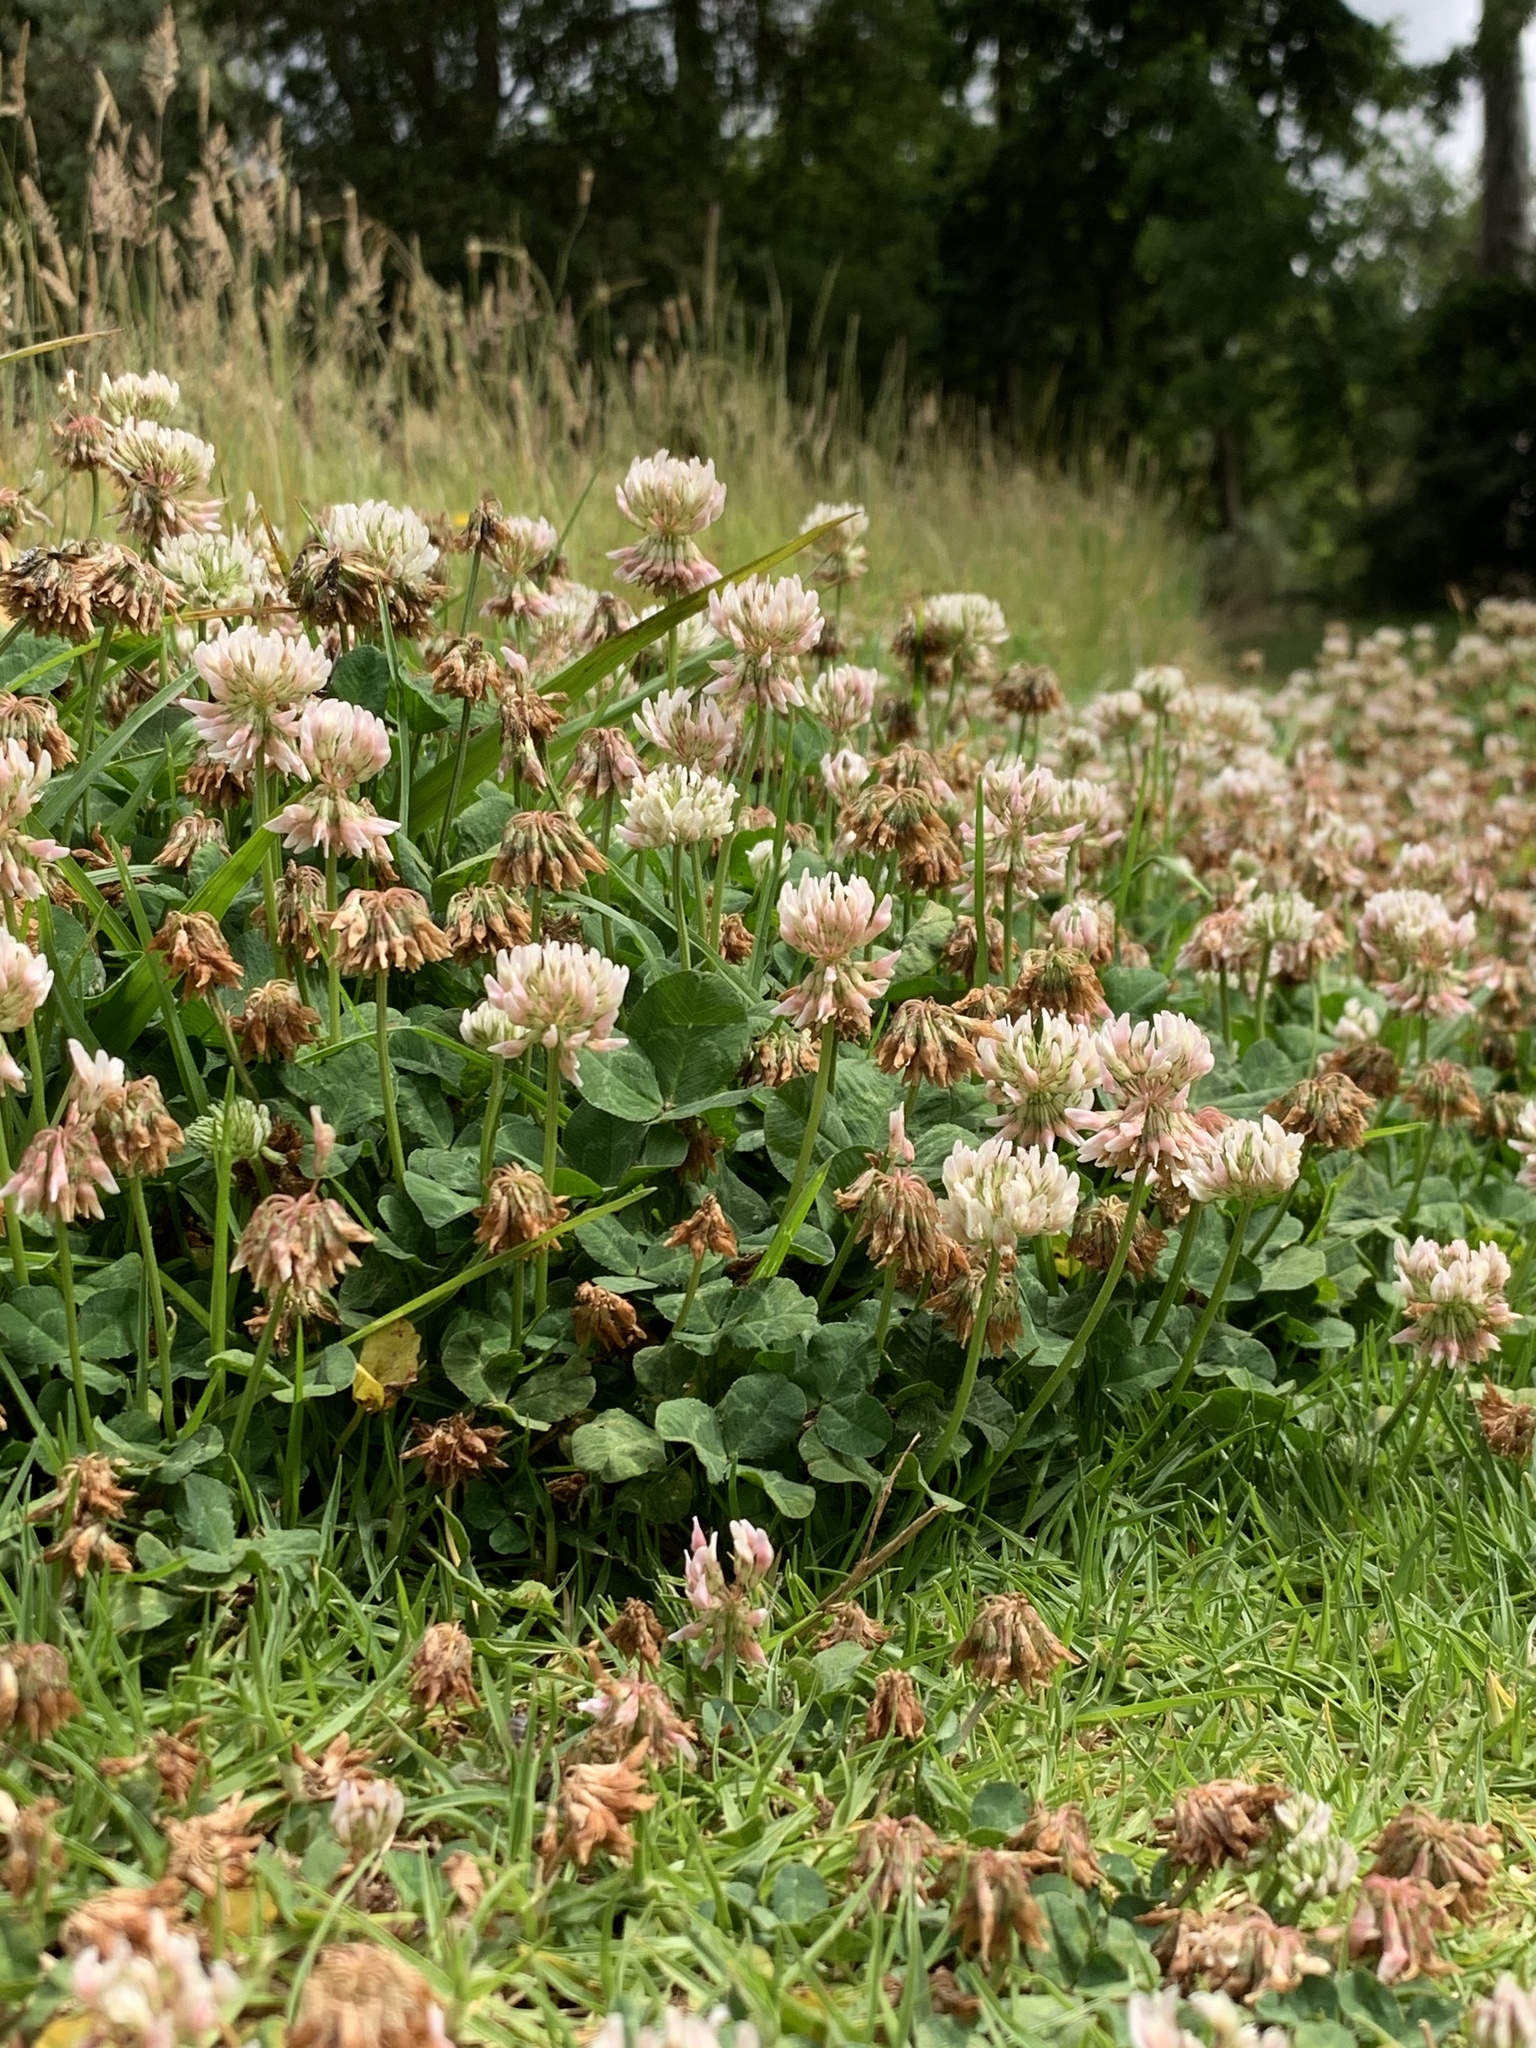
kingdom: Plantae
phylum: Tracheophyta
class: Magnoliopsida
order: Fabales
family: Fabaceae
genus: Trifolium
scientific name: Trifolium repens
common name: White clover
